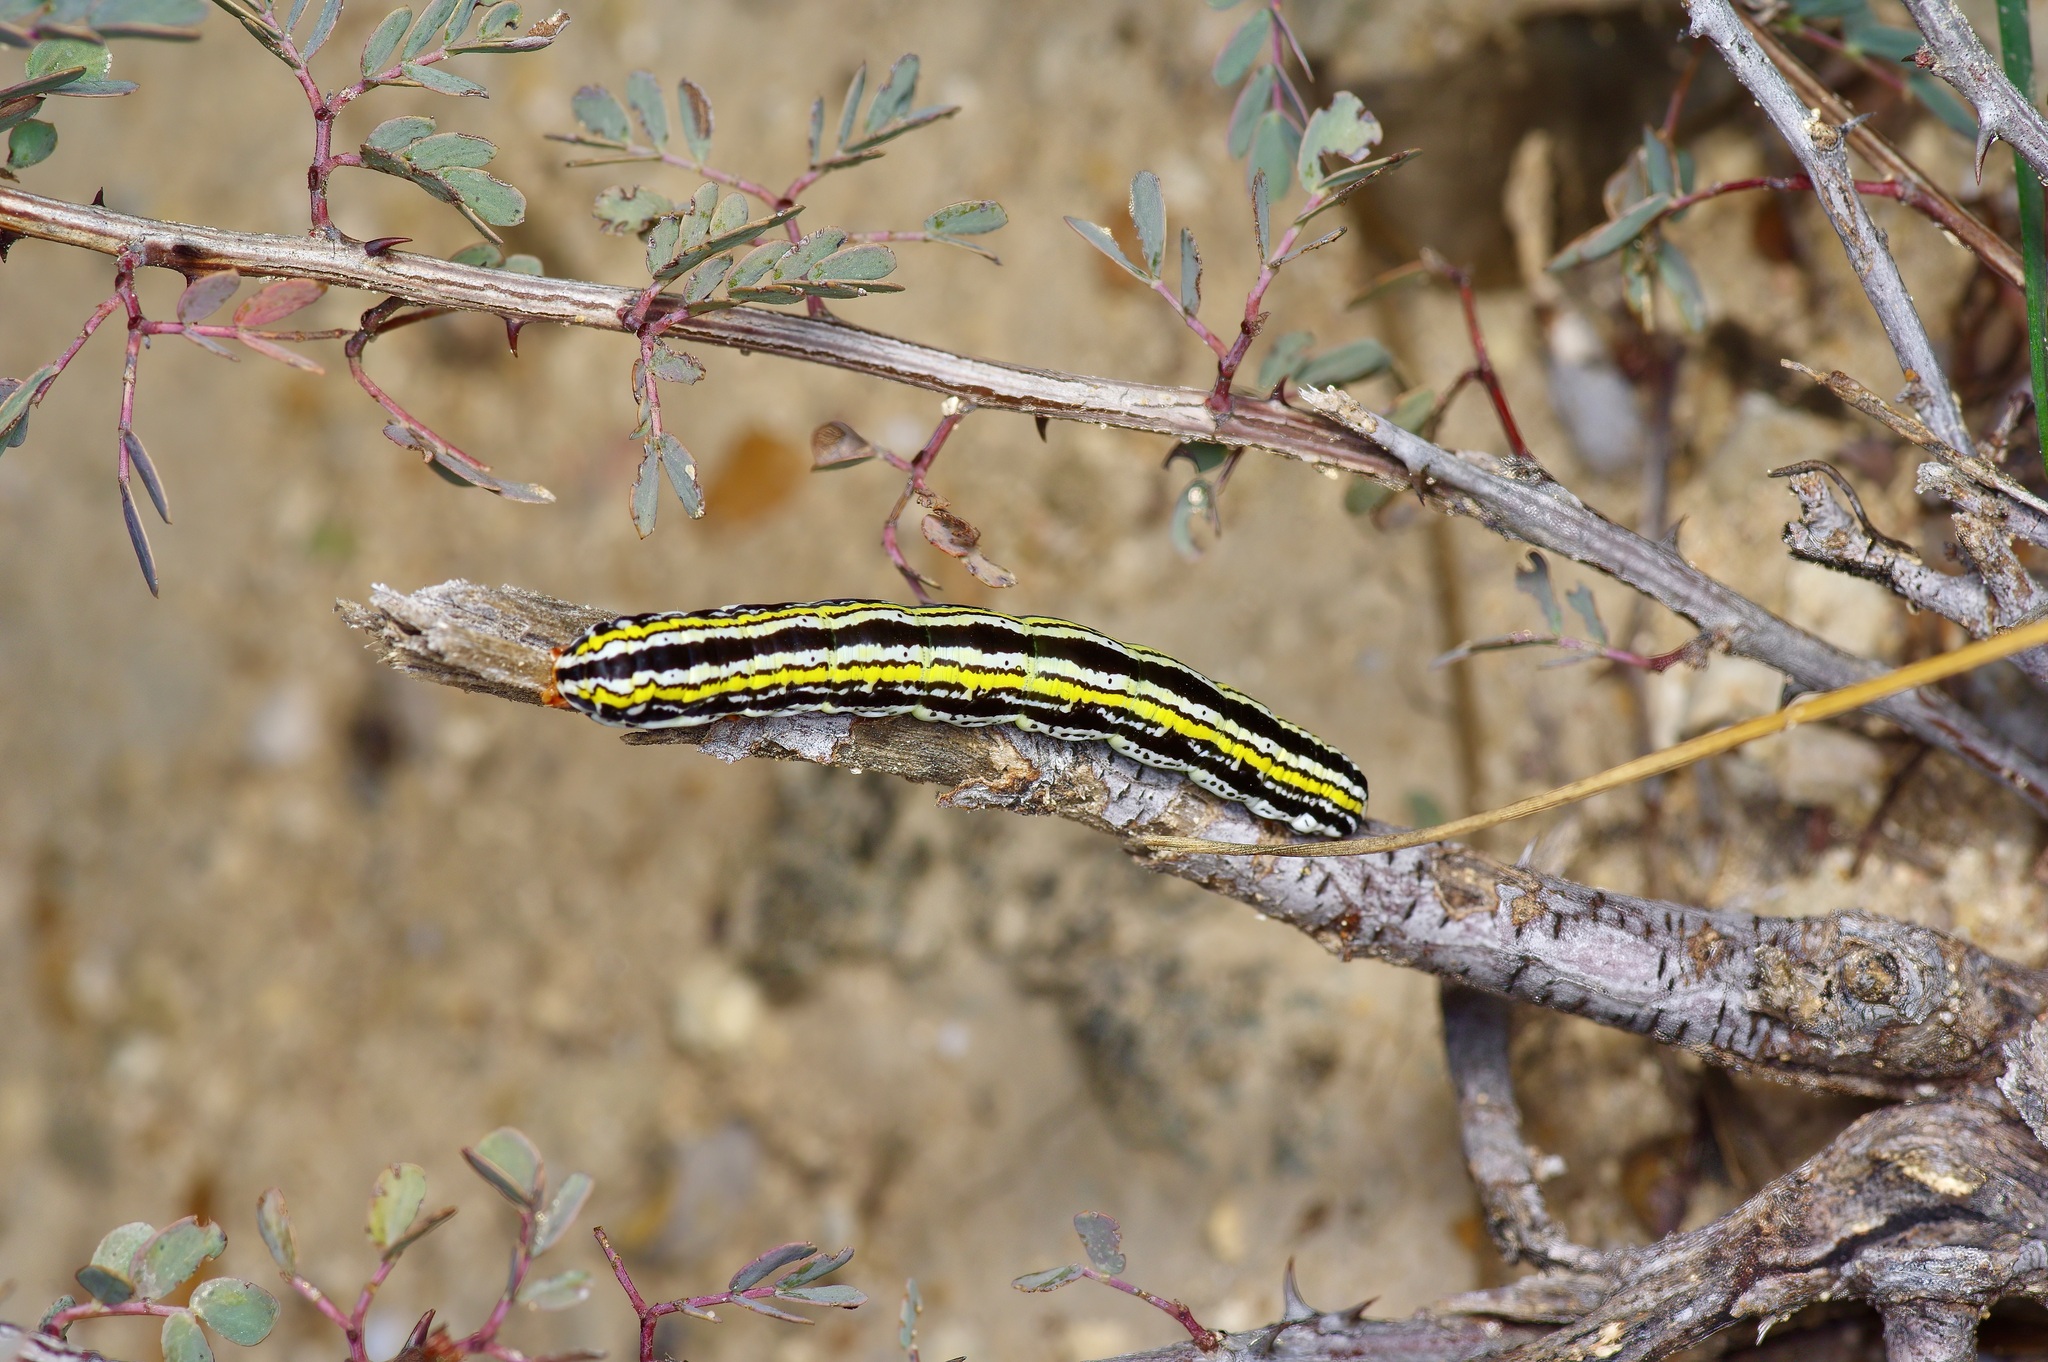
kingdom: Animalia
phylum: Arthropoda
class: Insecta
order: Lepidoptera
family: Noctuidae
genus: Cerathosia
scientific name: Cerathosia tricolor
